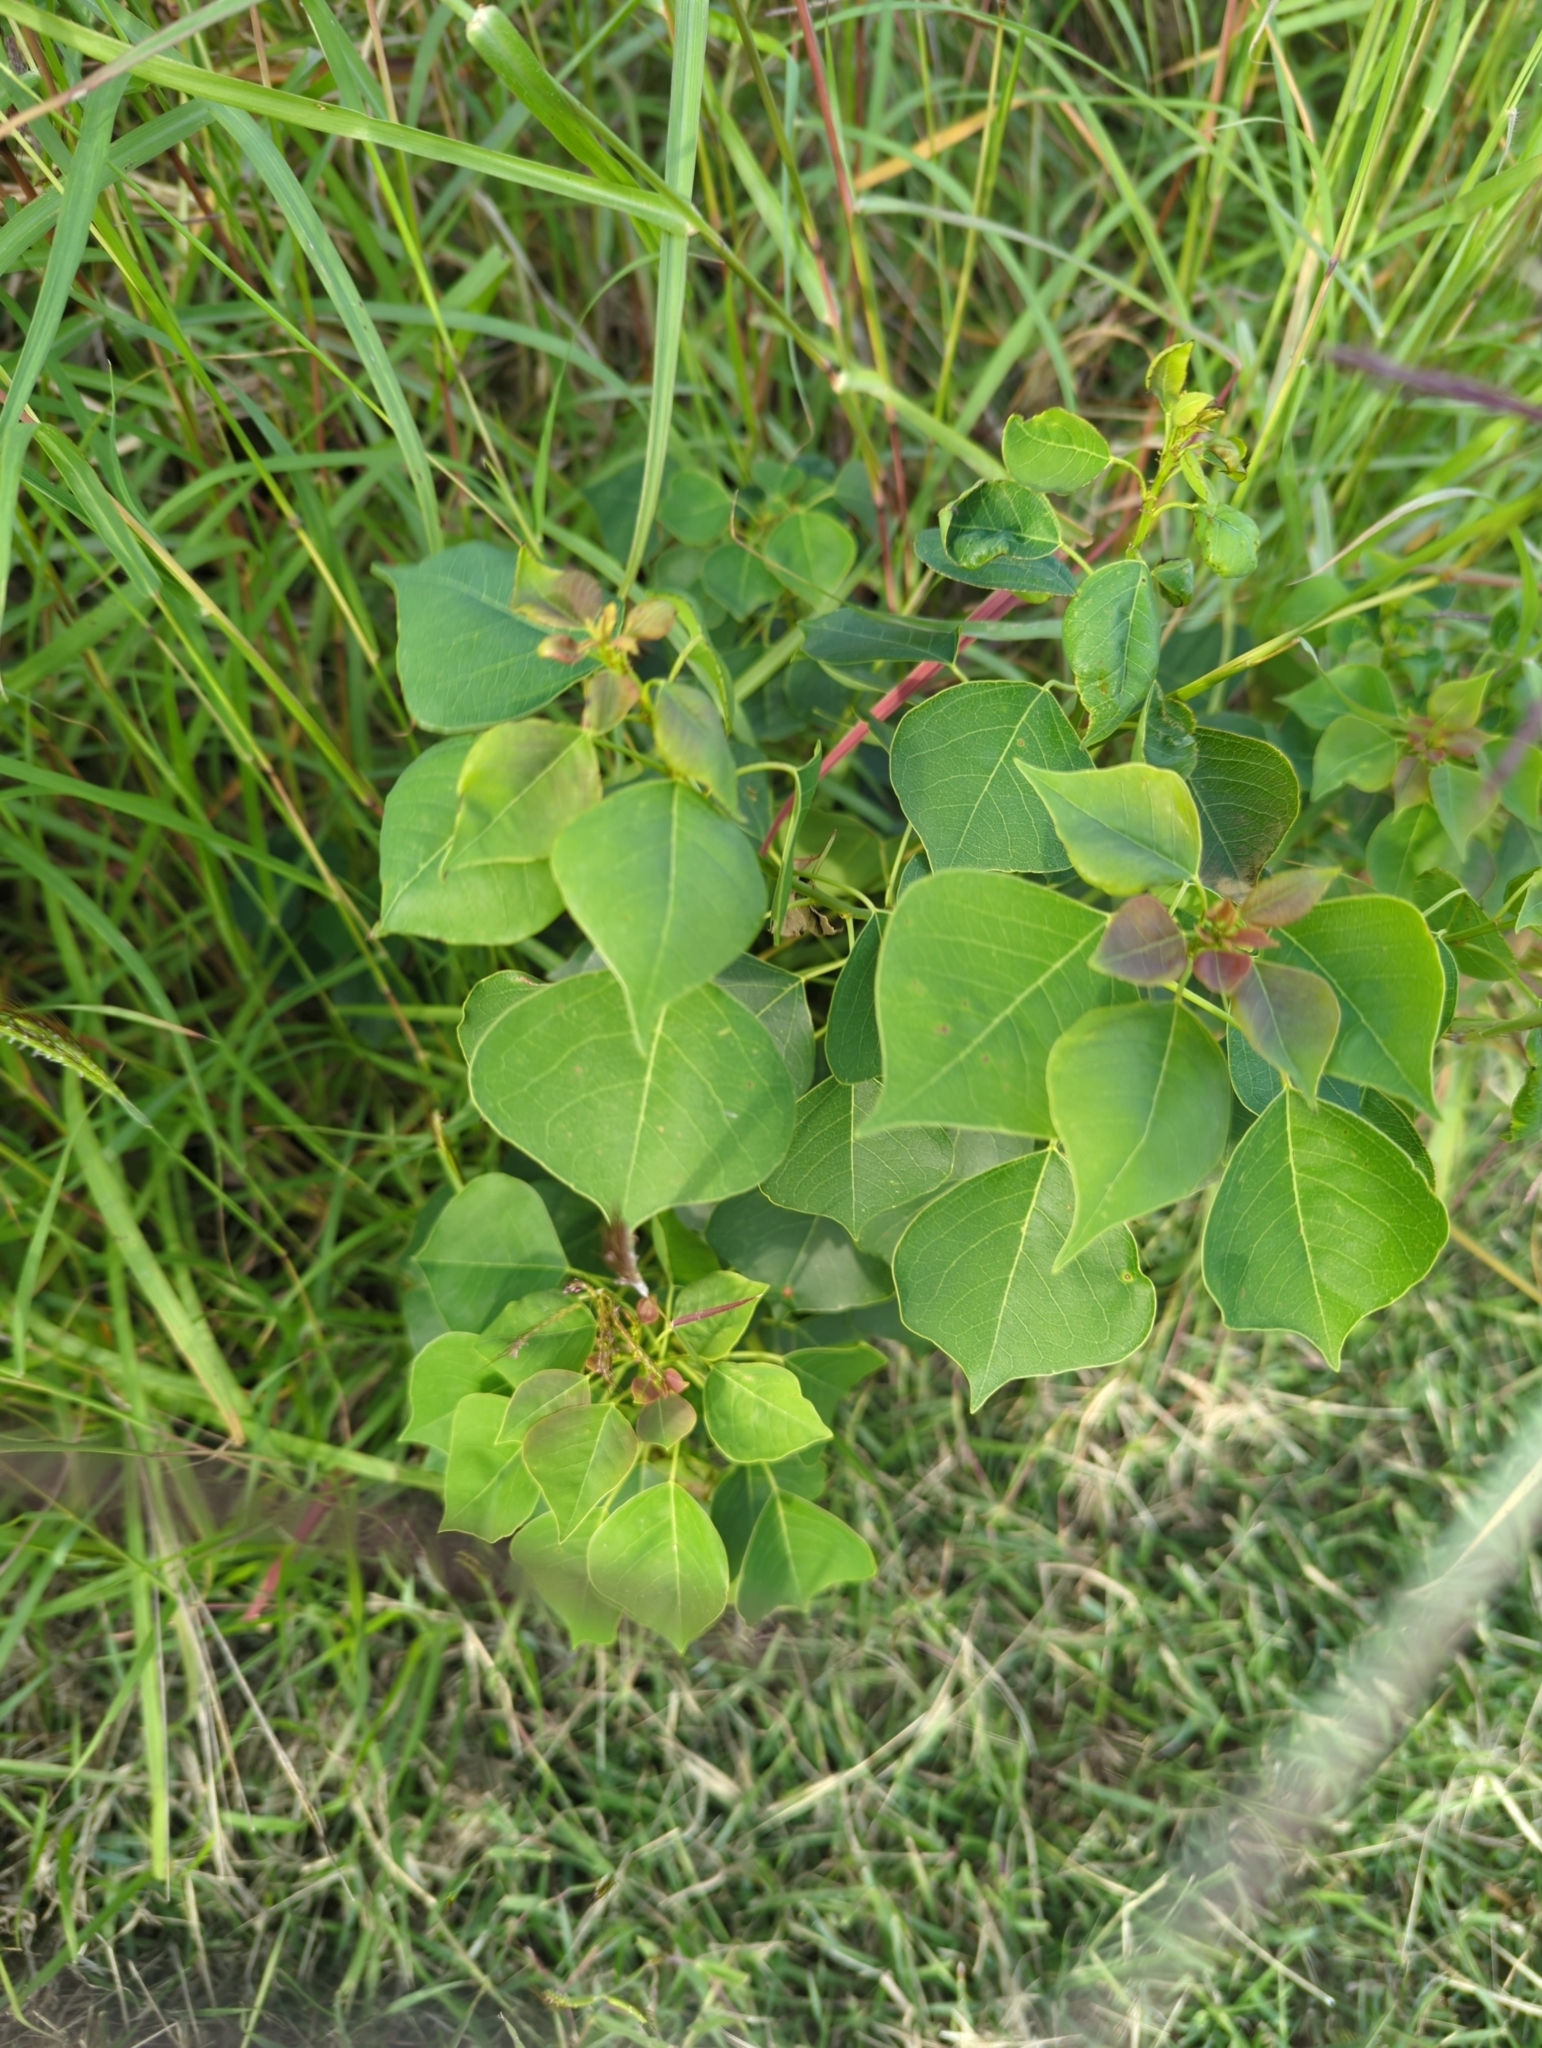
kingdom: Plantae
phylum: Tracheophyta
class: Magnoliopsida
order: Malpighiales
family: Euphorbiaceae
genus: Triadica
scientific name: Triadica sebifera
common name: Chinese tallow
